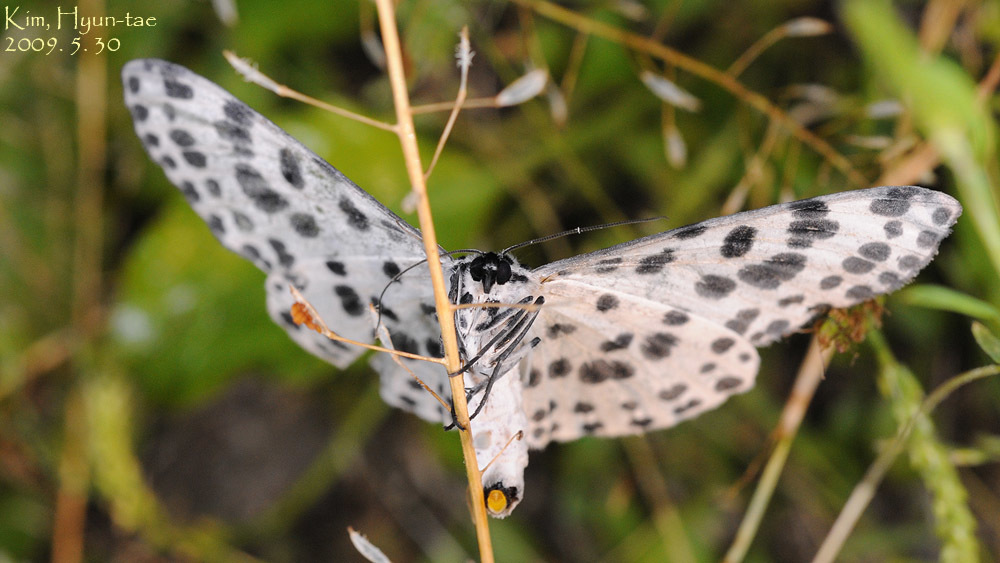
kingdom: Animalia
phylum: Arthropoda
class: Insecta
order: Lepidoptera
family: Geometridae
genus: Antipercnia
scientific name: Antipercnia albinigrata
